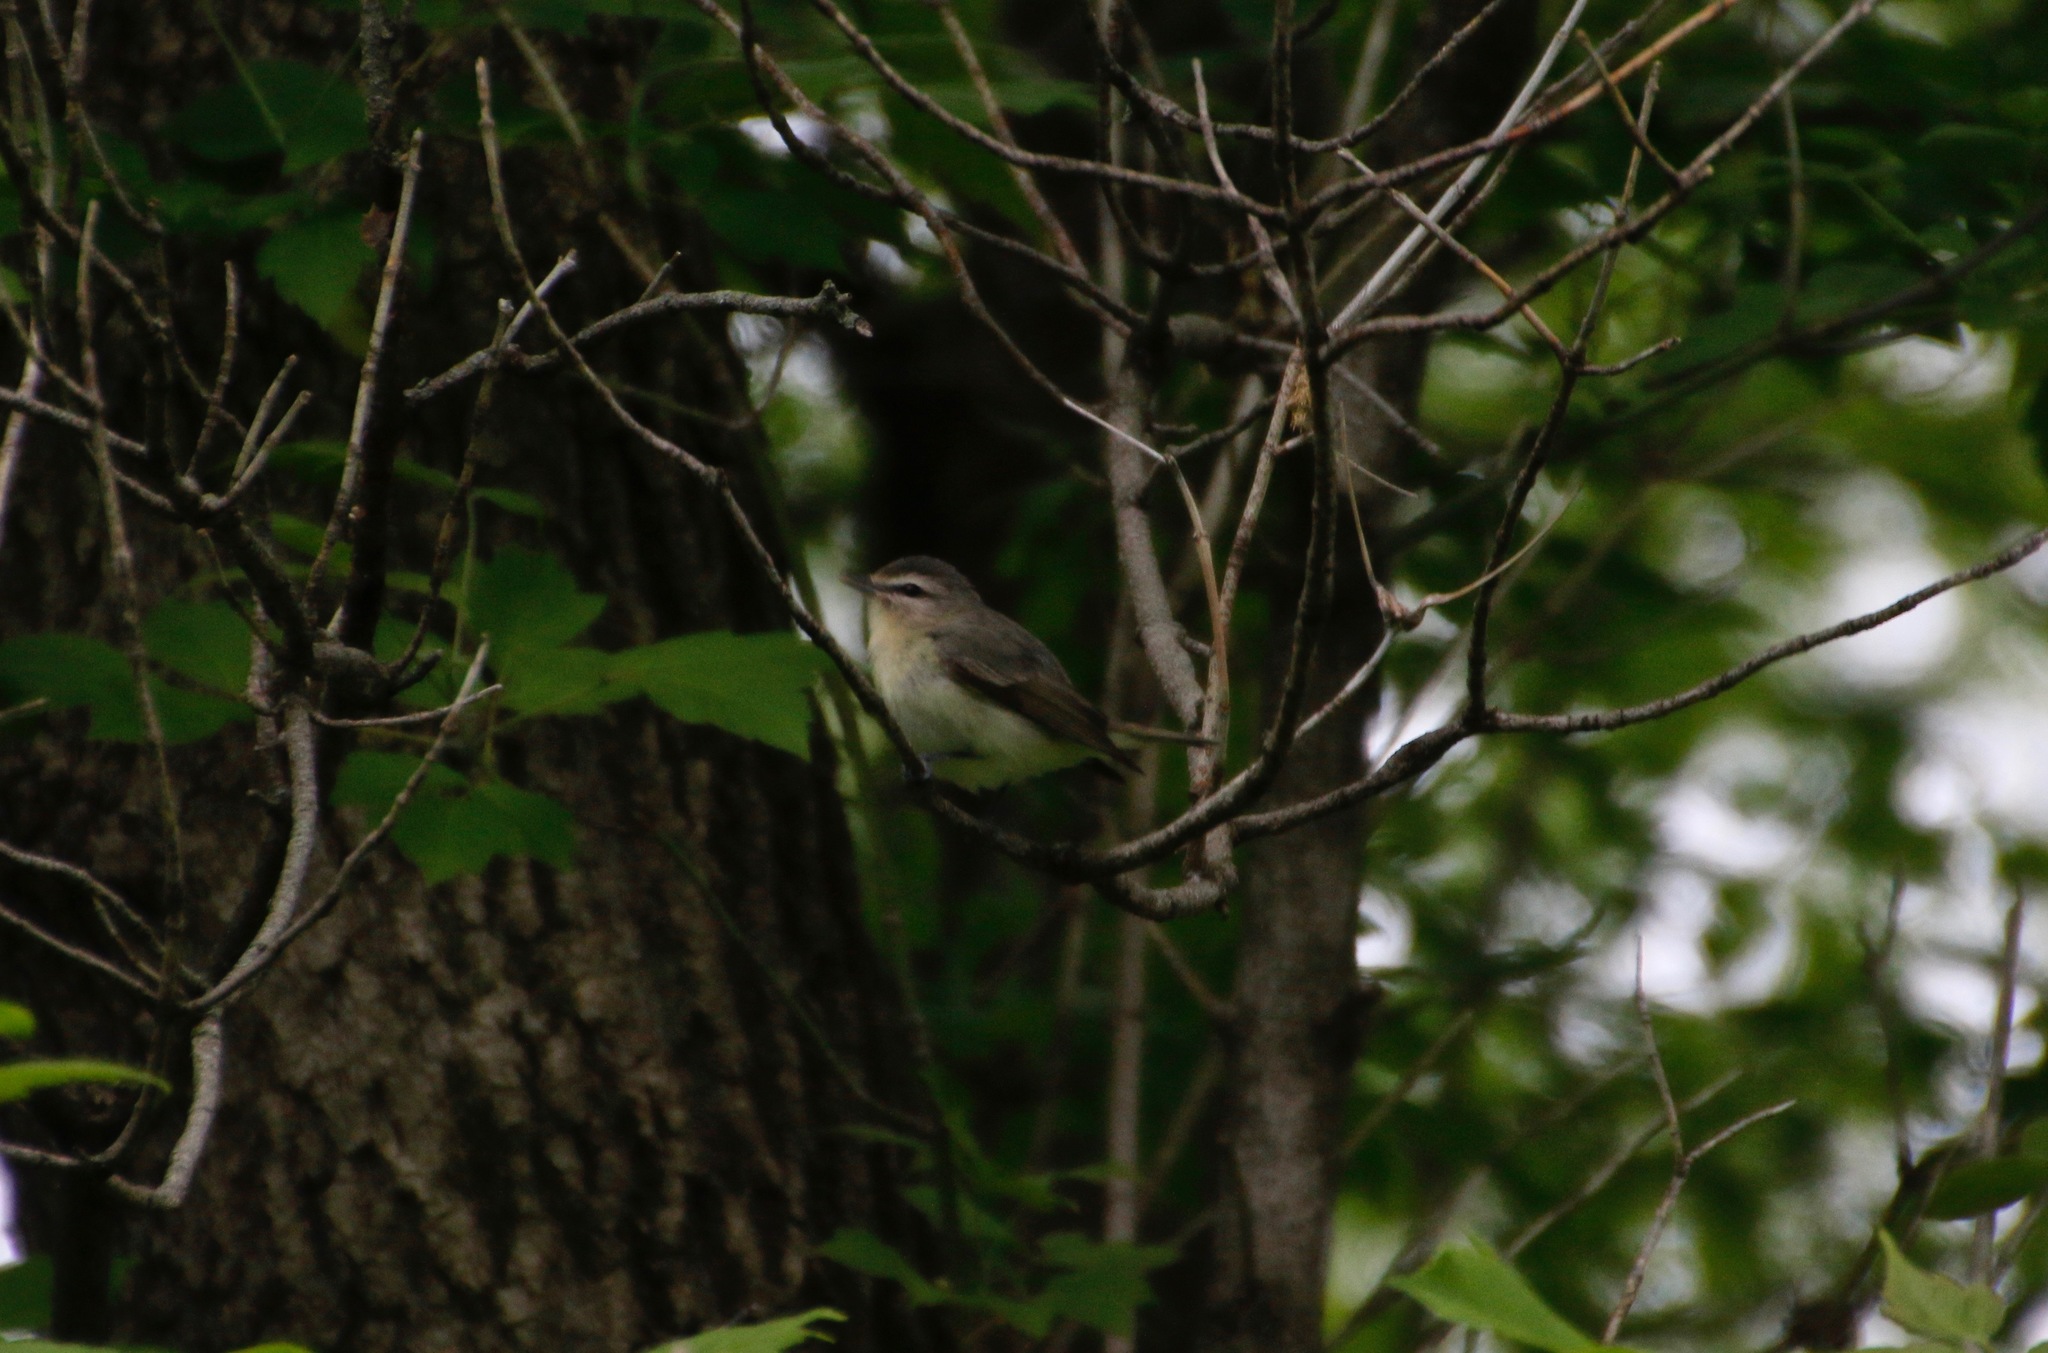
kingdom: Animalia
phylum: Chordata
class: Aves
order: Passeriformes
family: Vireonidae
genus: Vireo
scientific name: Vireo philadelphicus
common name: Philadelphia vireo
